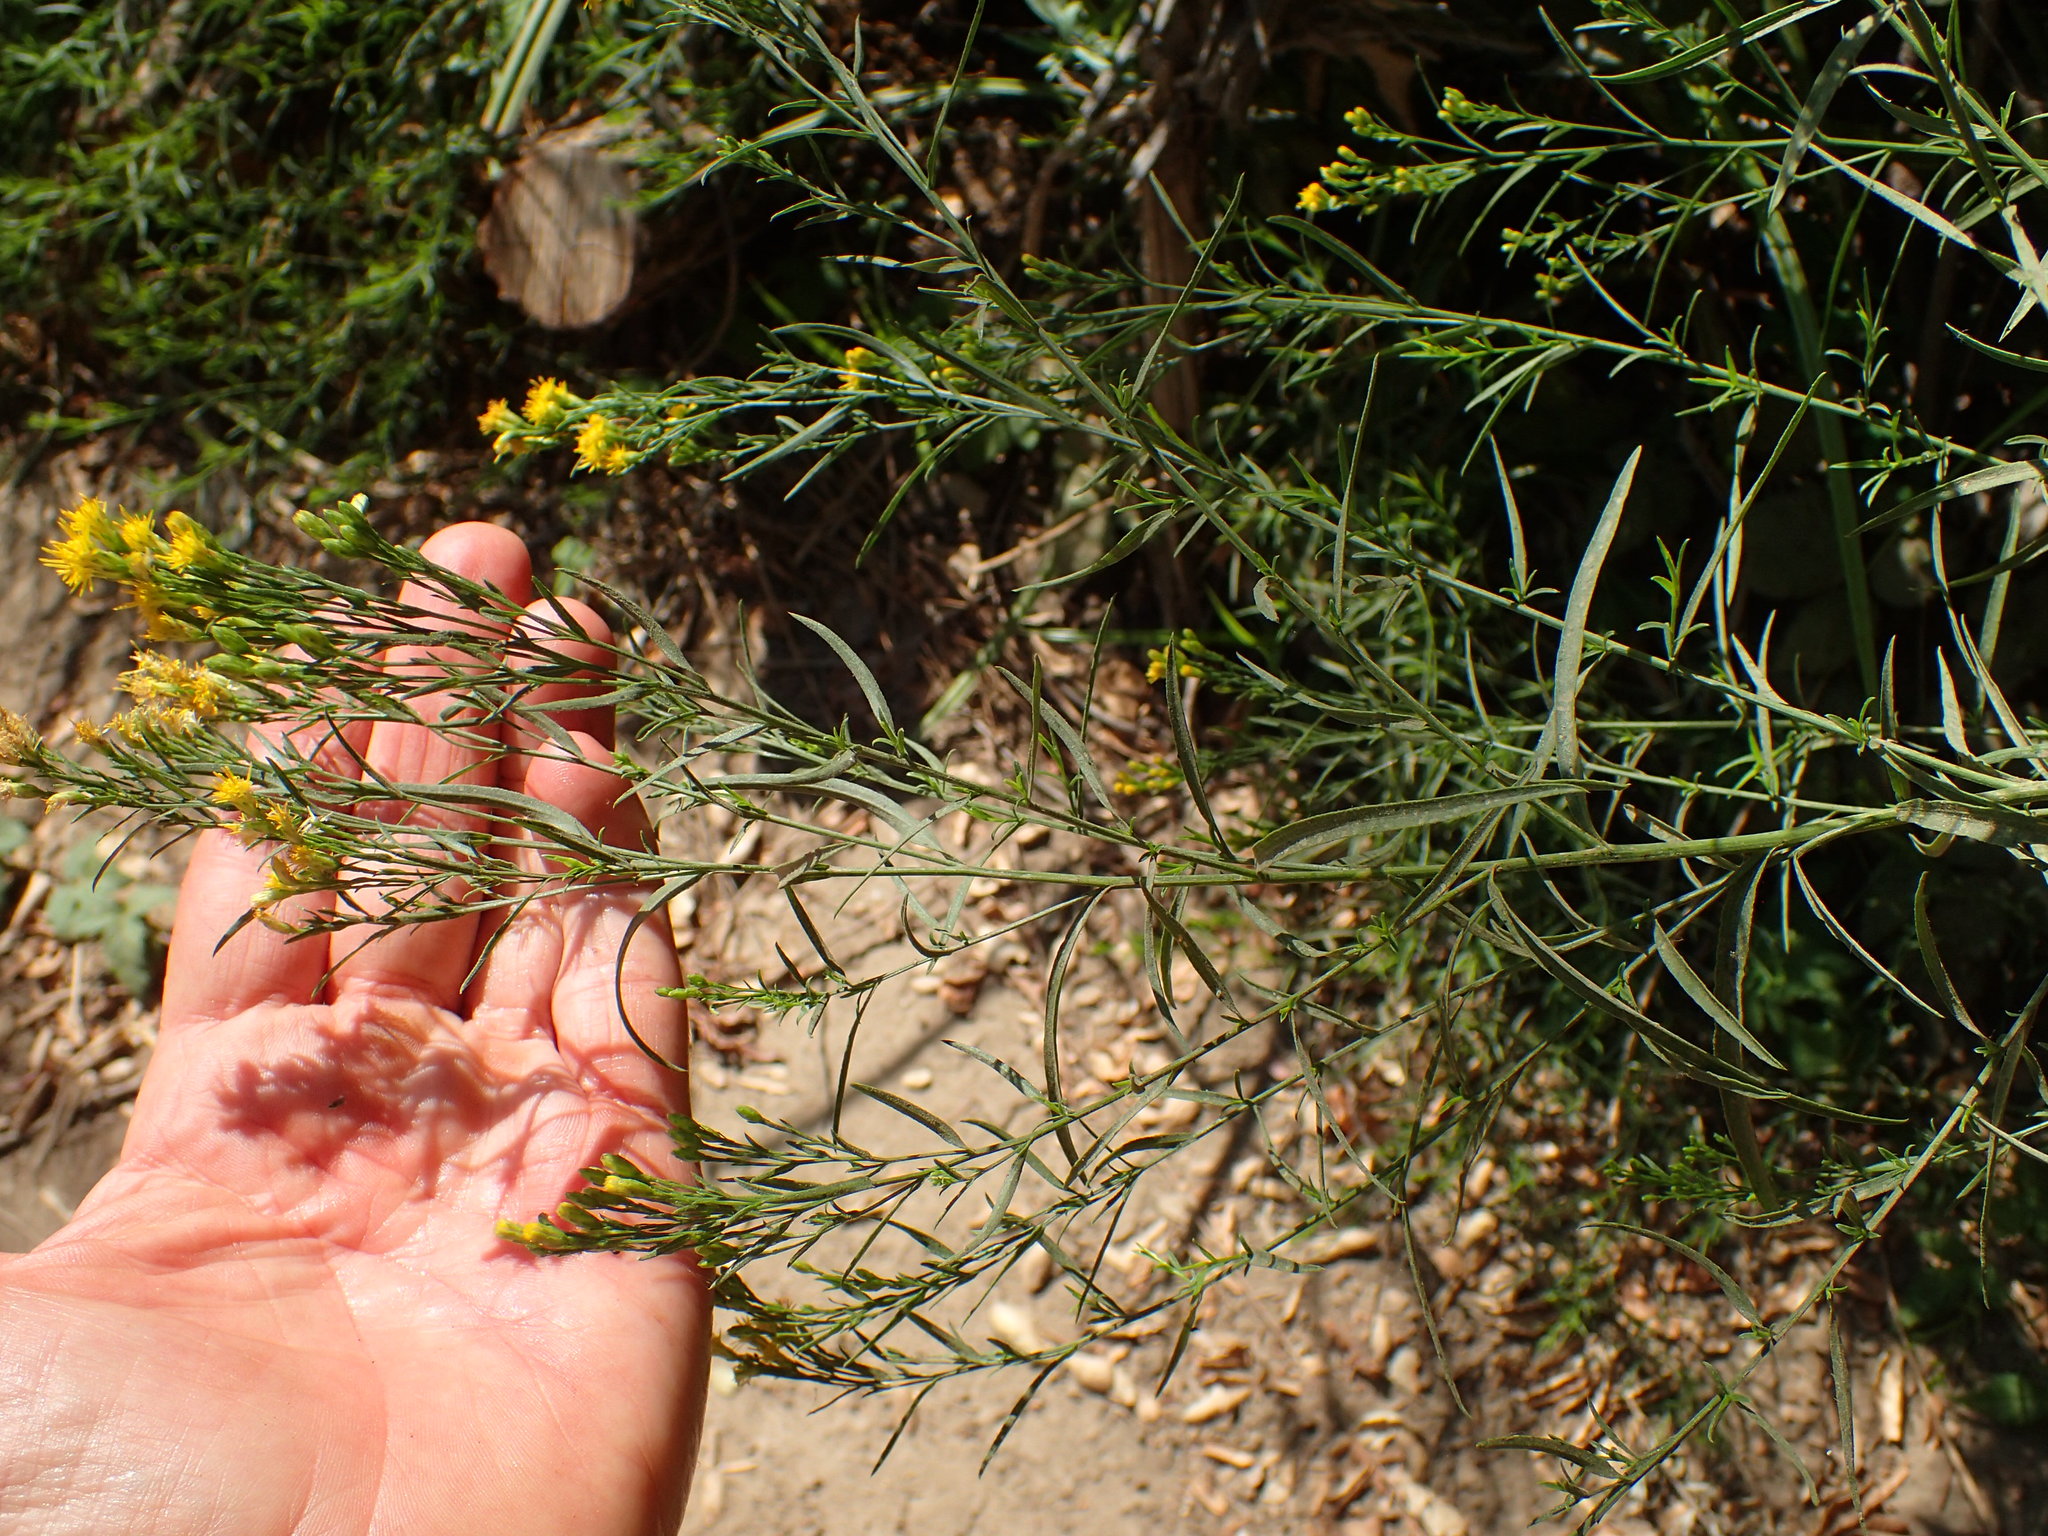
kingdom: Plantae
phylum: Tracheophyta
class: Magnoliopsida
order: Asterales
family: Asteraceae
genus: Euthamia
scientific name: Euthamia occidentalis
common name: Western goldentop
